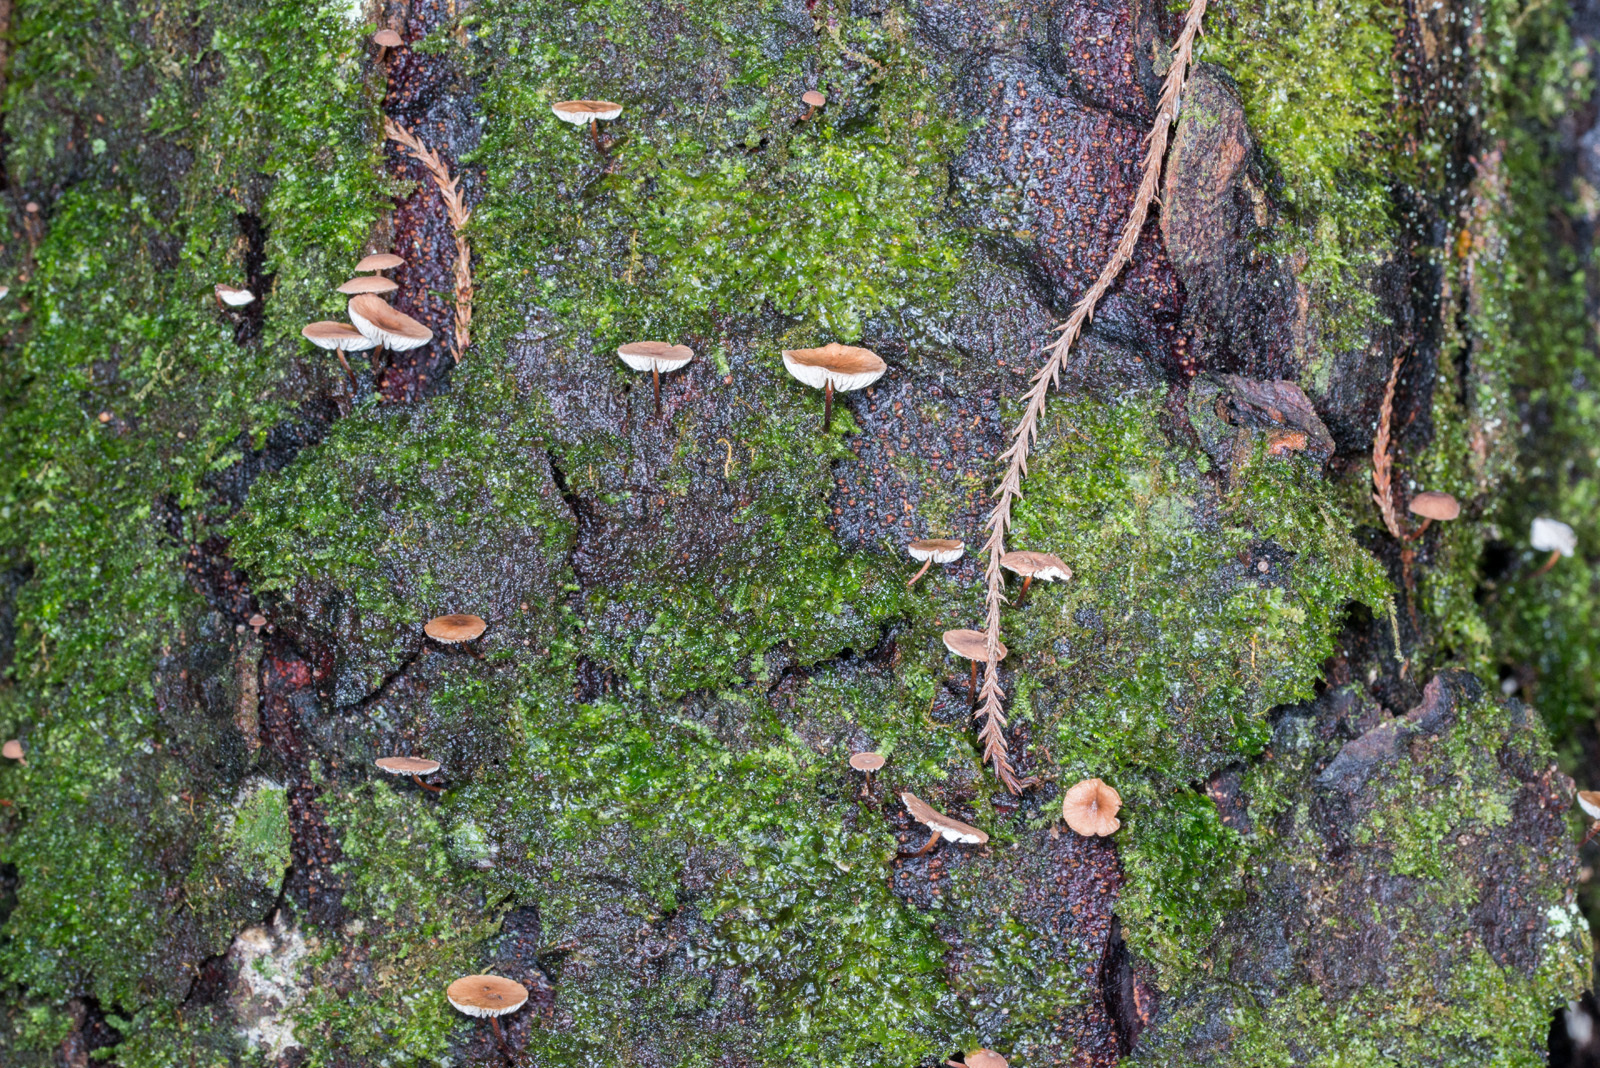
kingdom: Fungi
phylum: Basidiomycota
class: Agaricomycetes
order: Agaricales
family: Omphalotaceae
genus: Mycetinis
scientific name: Mycetinis curraniae
